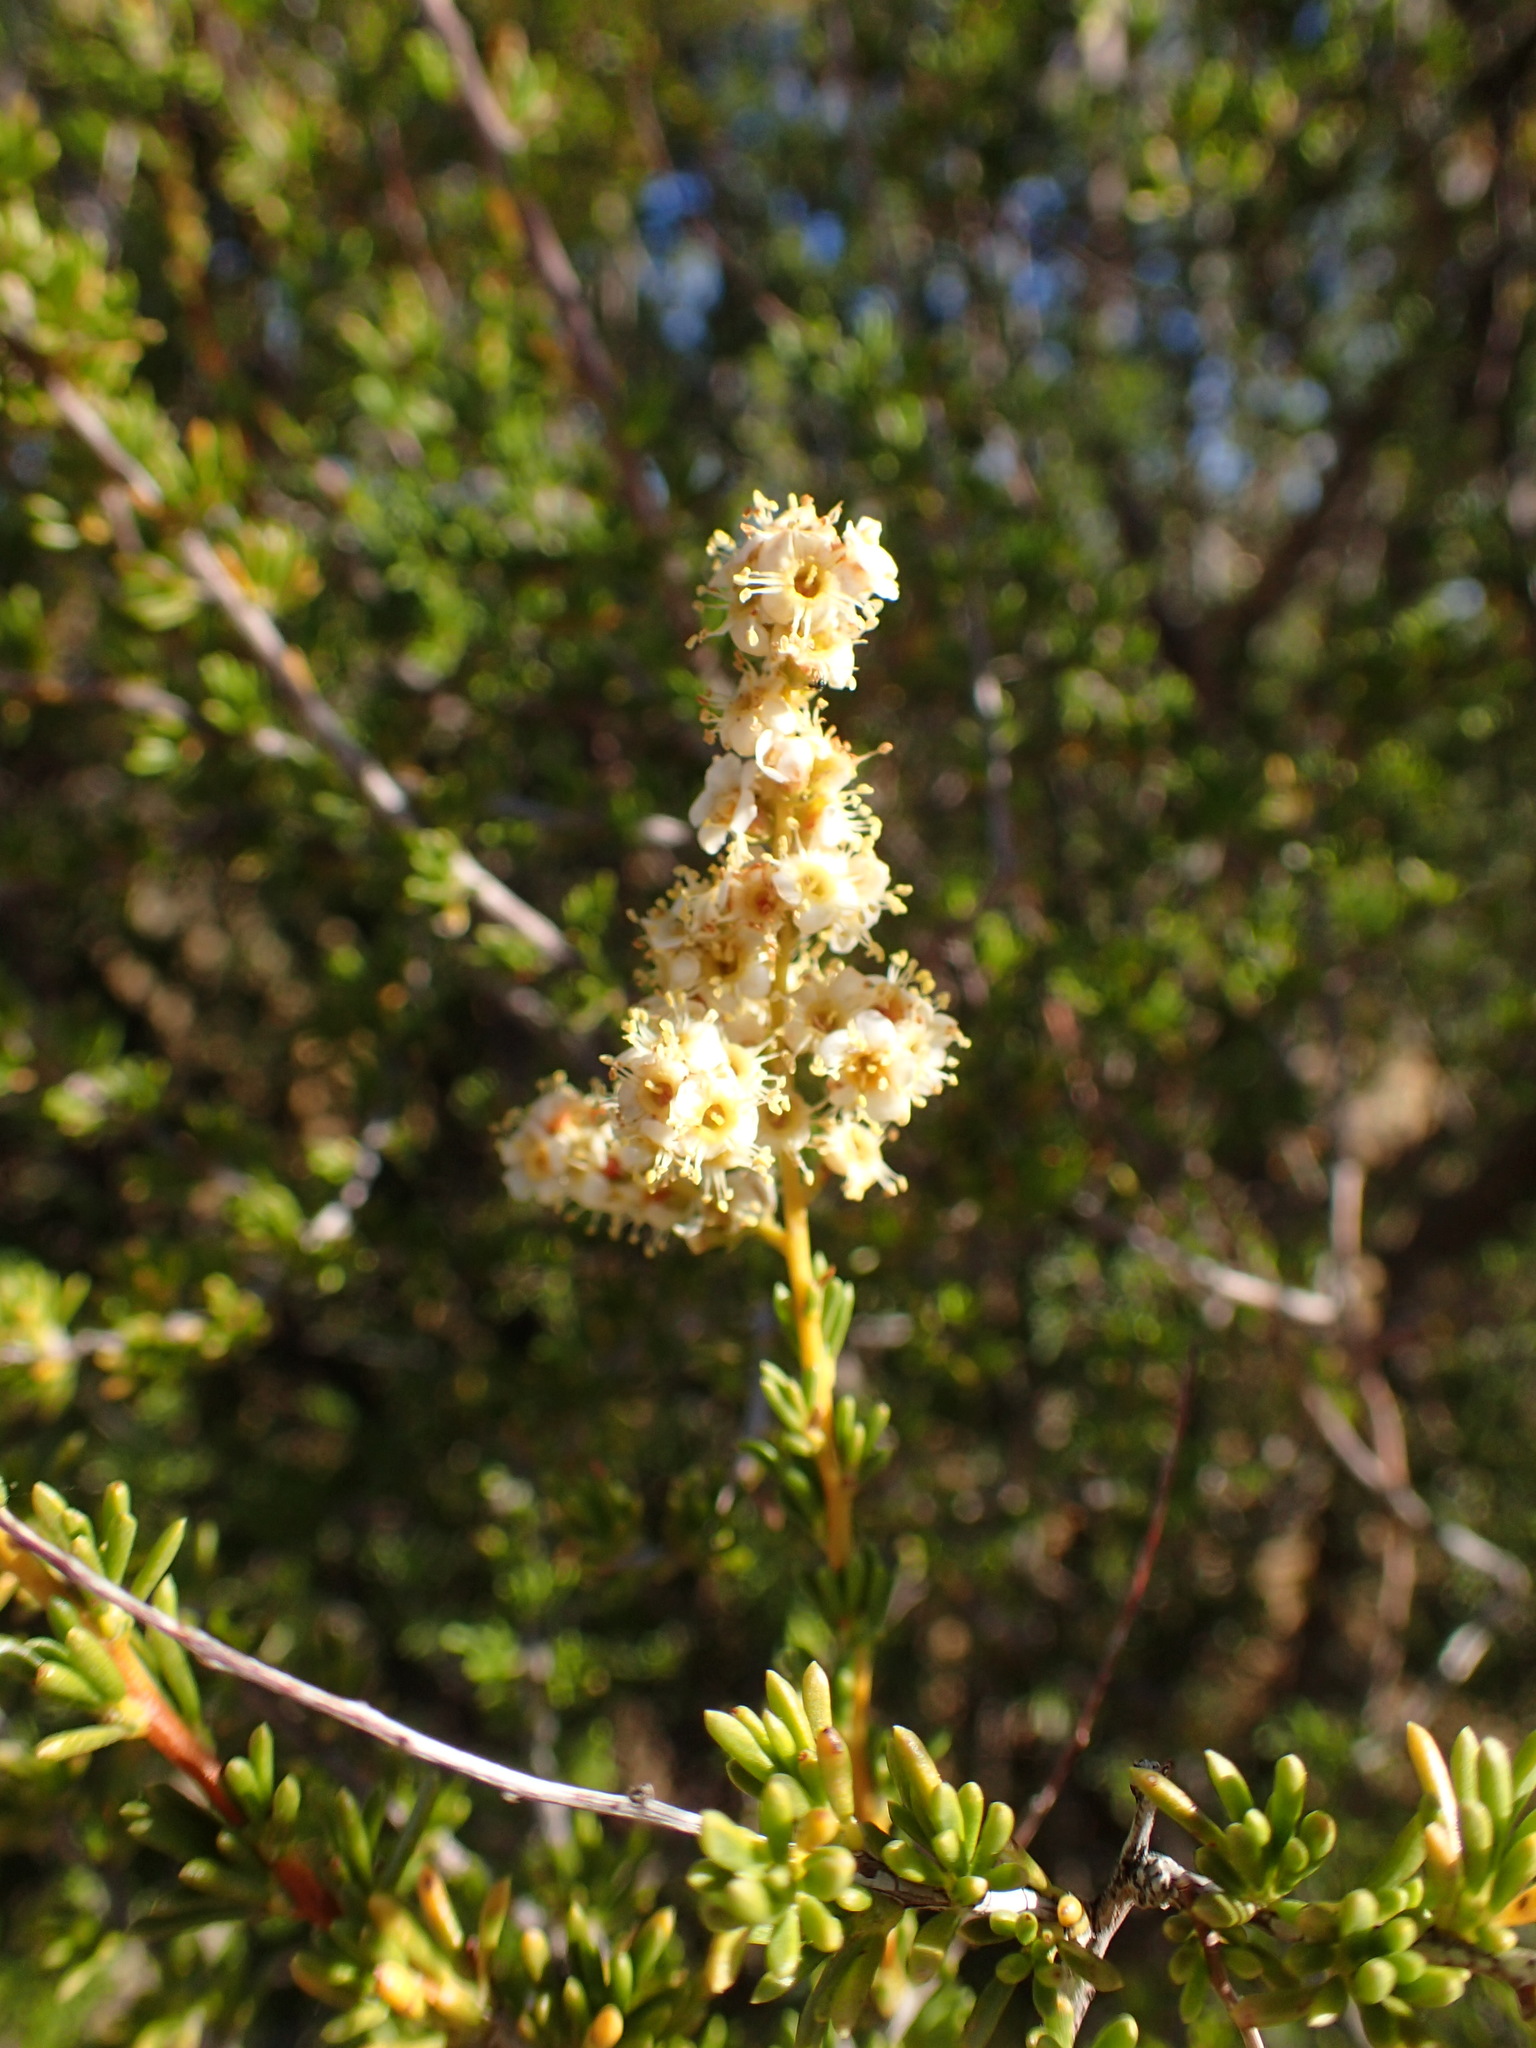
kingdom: Plantae
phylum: Tracheophyta
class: Magnoliopsida
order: Rosales
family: Rosaceae
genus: Adenostoma
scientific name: Adenostoma fasciculatum
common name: Chamise
